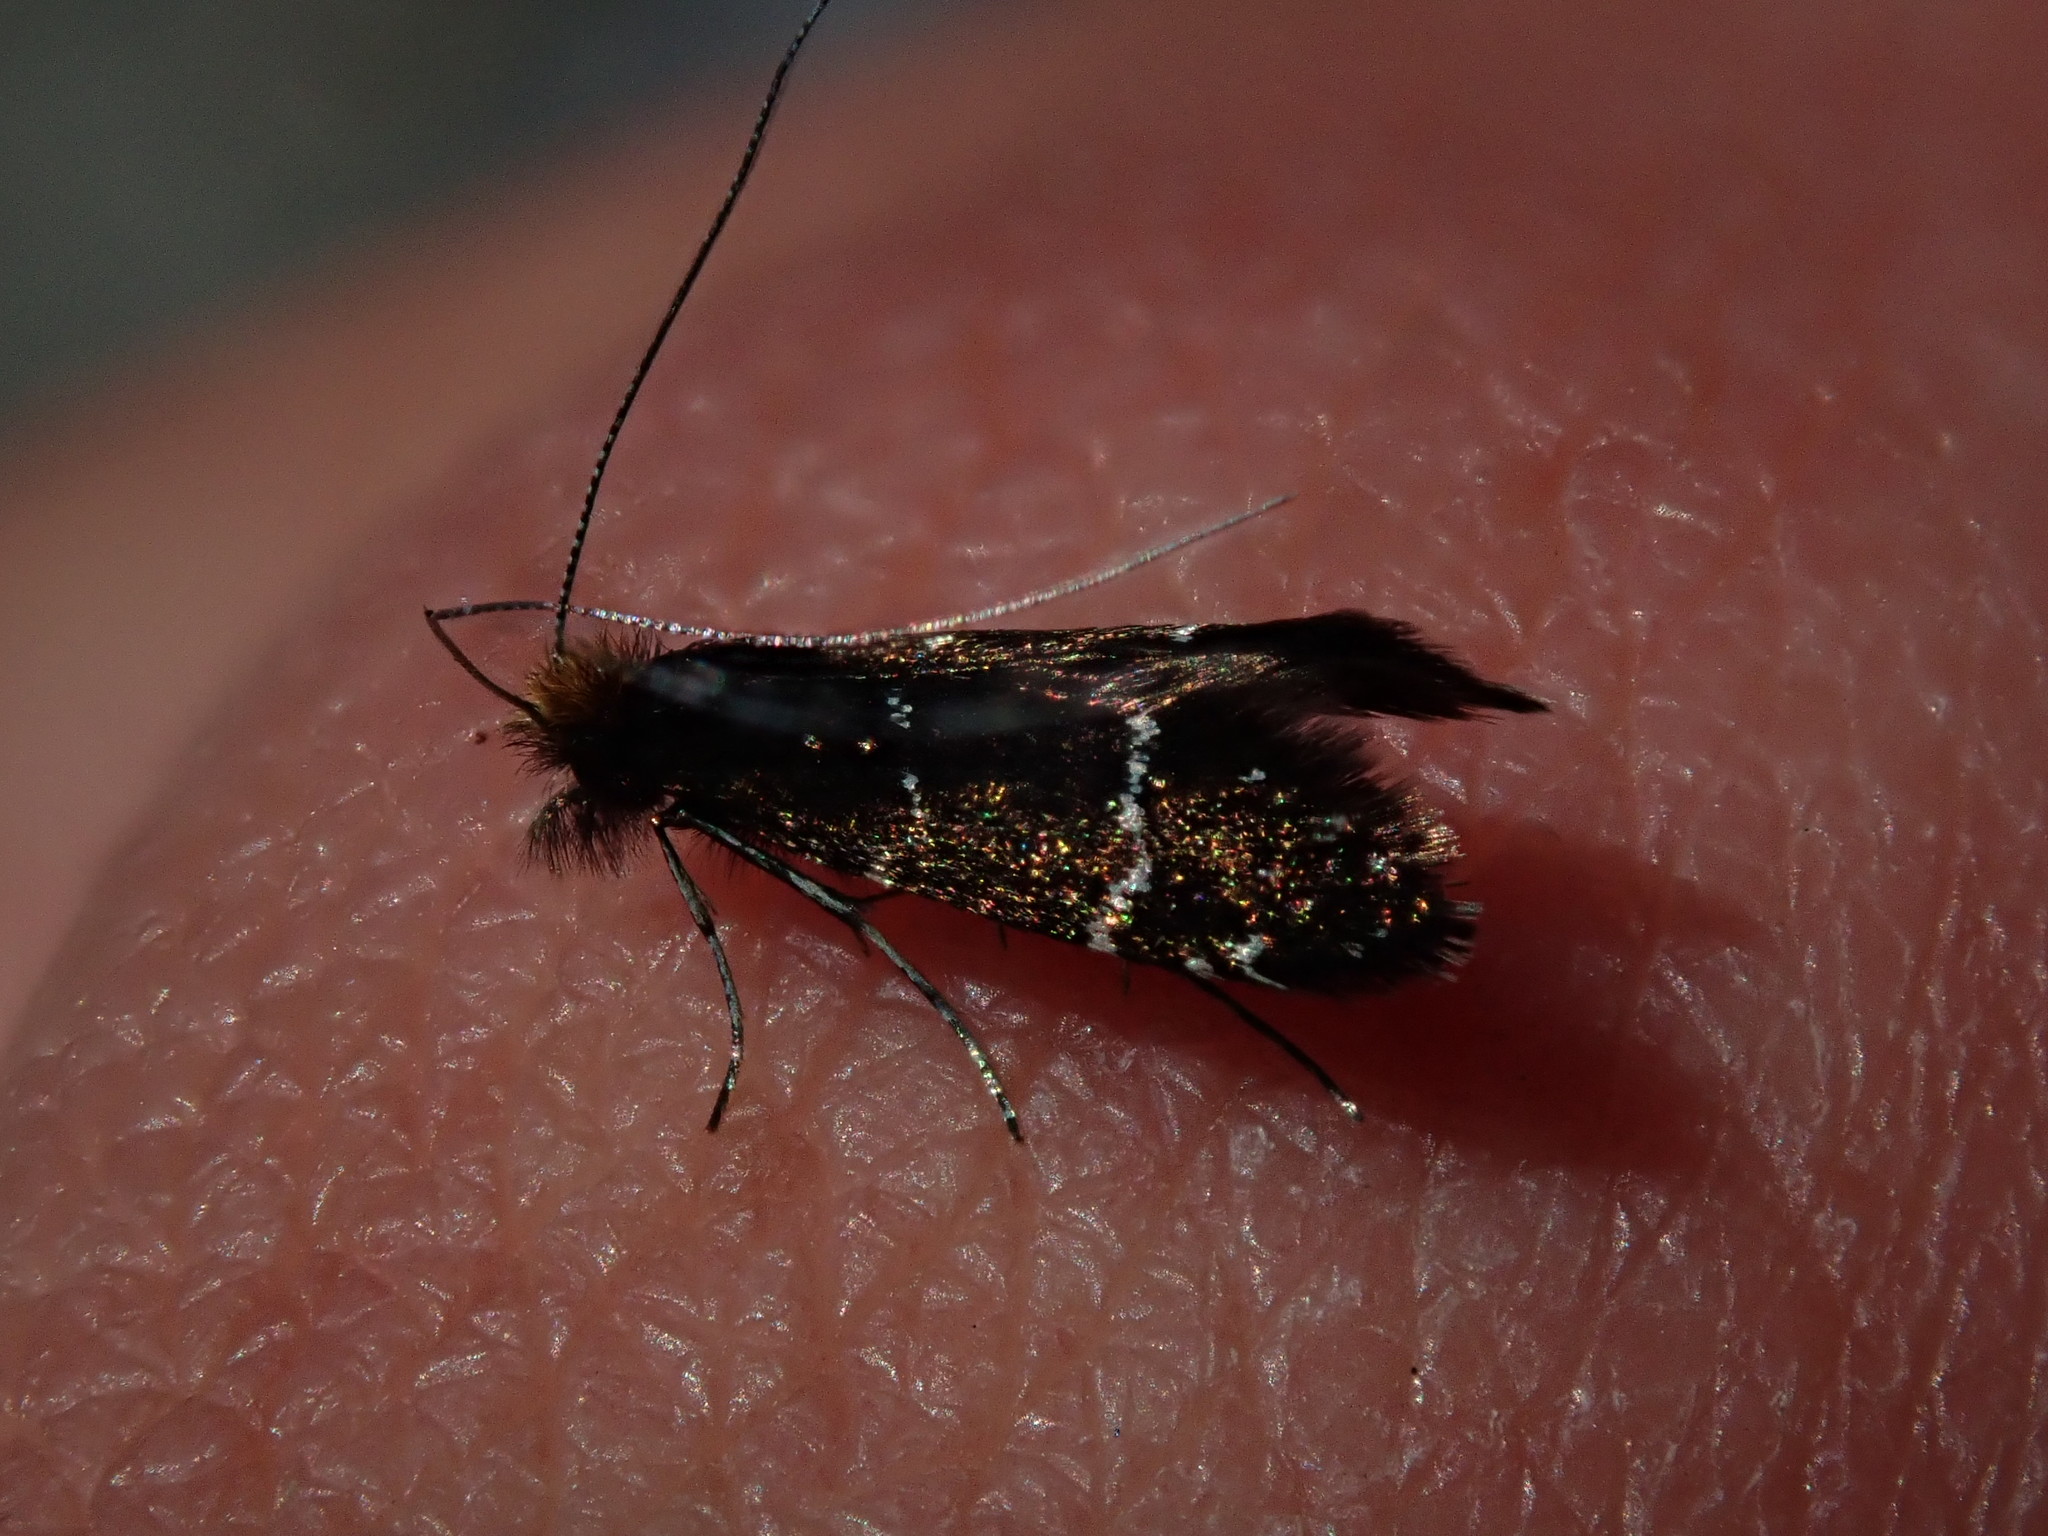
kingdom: Animalia
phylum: Arthropoda
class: Insecta
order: Lepidoptera
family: Adelidae
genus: Adela
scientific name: Adela septentrionella
